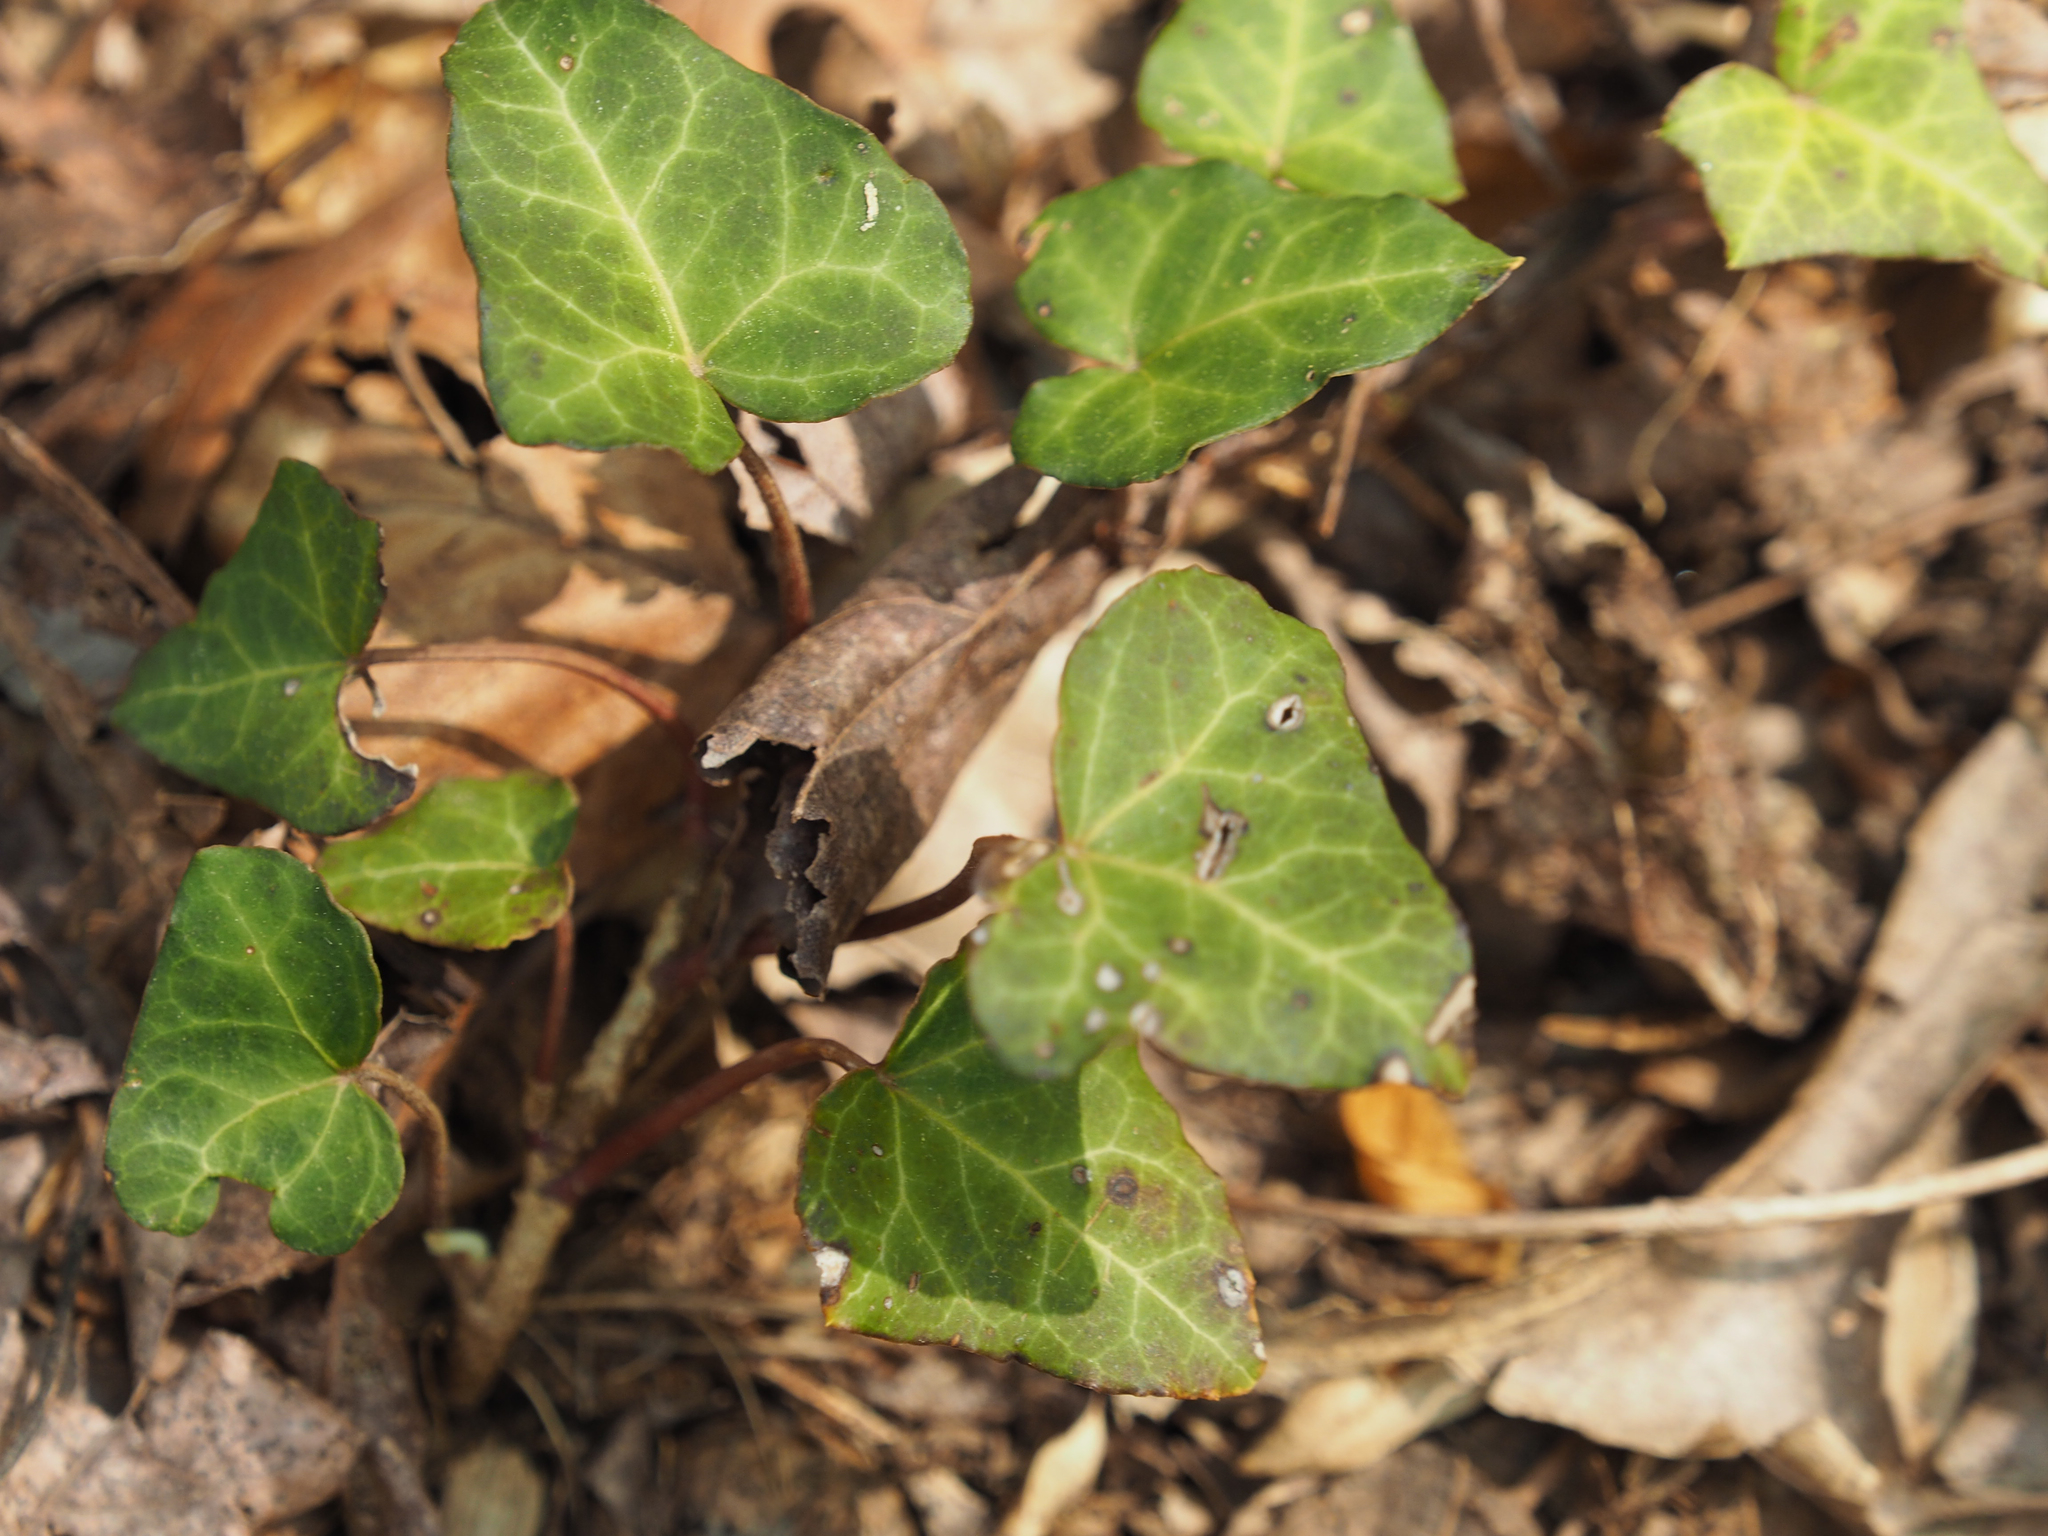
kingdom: Plantae
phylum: Tracheophyta
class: Magnoliopsida
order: Apiales
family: Araliaceae
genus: Hedera
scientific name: Hedera helix
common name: Ivy
